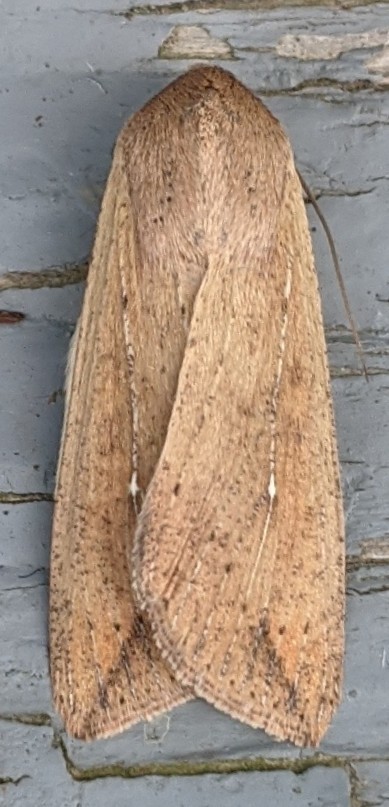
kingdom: Animalia
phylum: Arthropoda
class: Insecta
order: Lepidoptera
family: Noctuidae
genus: Mythimna
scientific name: Mythimna unipuncta
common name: White-speck
